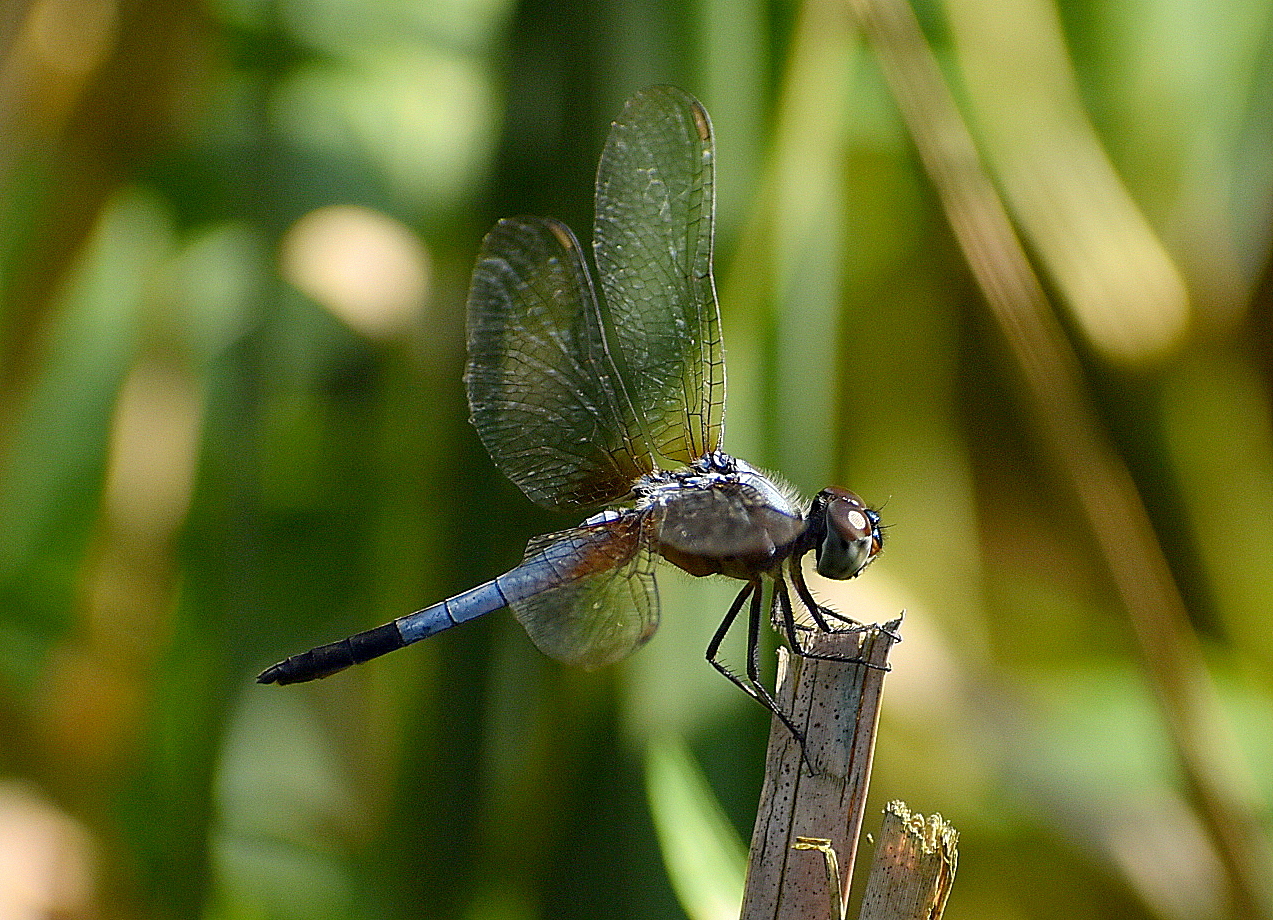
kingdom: Animalia
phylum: Arthropoda
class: Insecta
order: Odonata
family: Libellulidae
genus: Brachydiplax
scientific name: Brachydiplax chalybea
